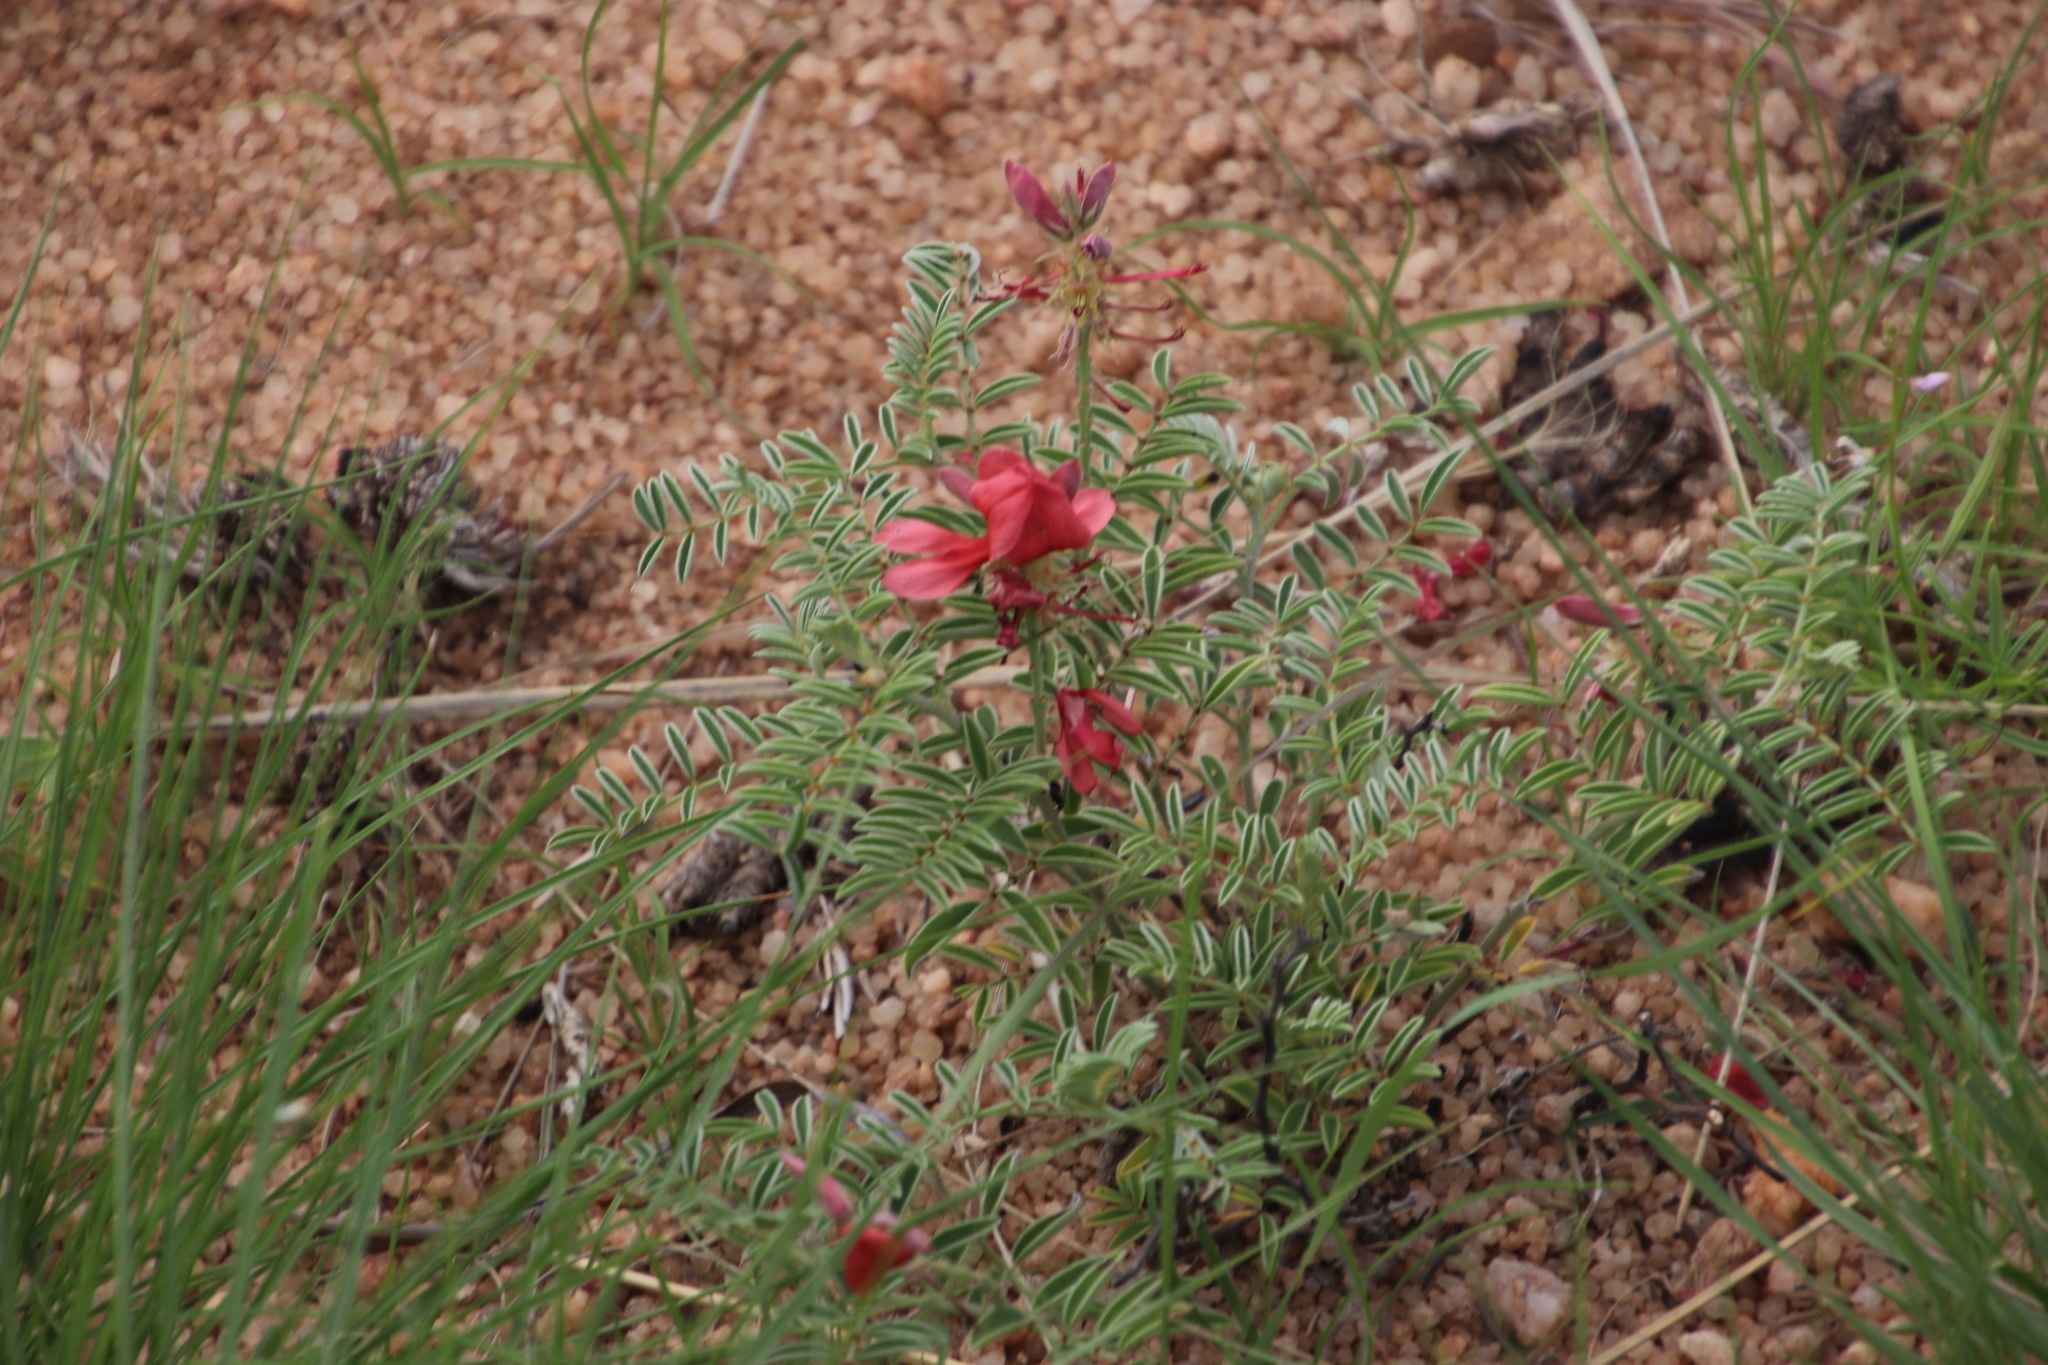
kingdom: Plantae
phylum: Tracheophyta
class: Magnoliopsida
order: Fabales
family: Fabaceae
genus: Indigofera
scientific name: Indigofera oxytropis
